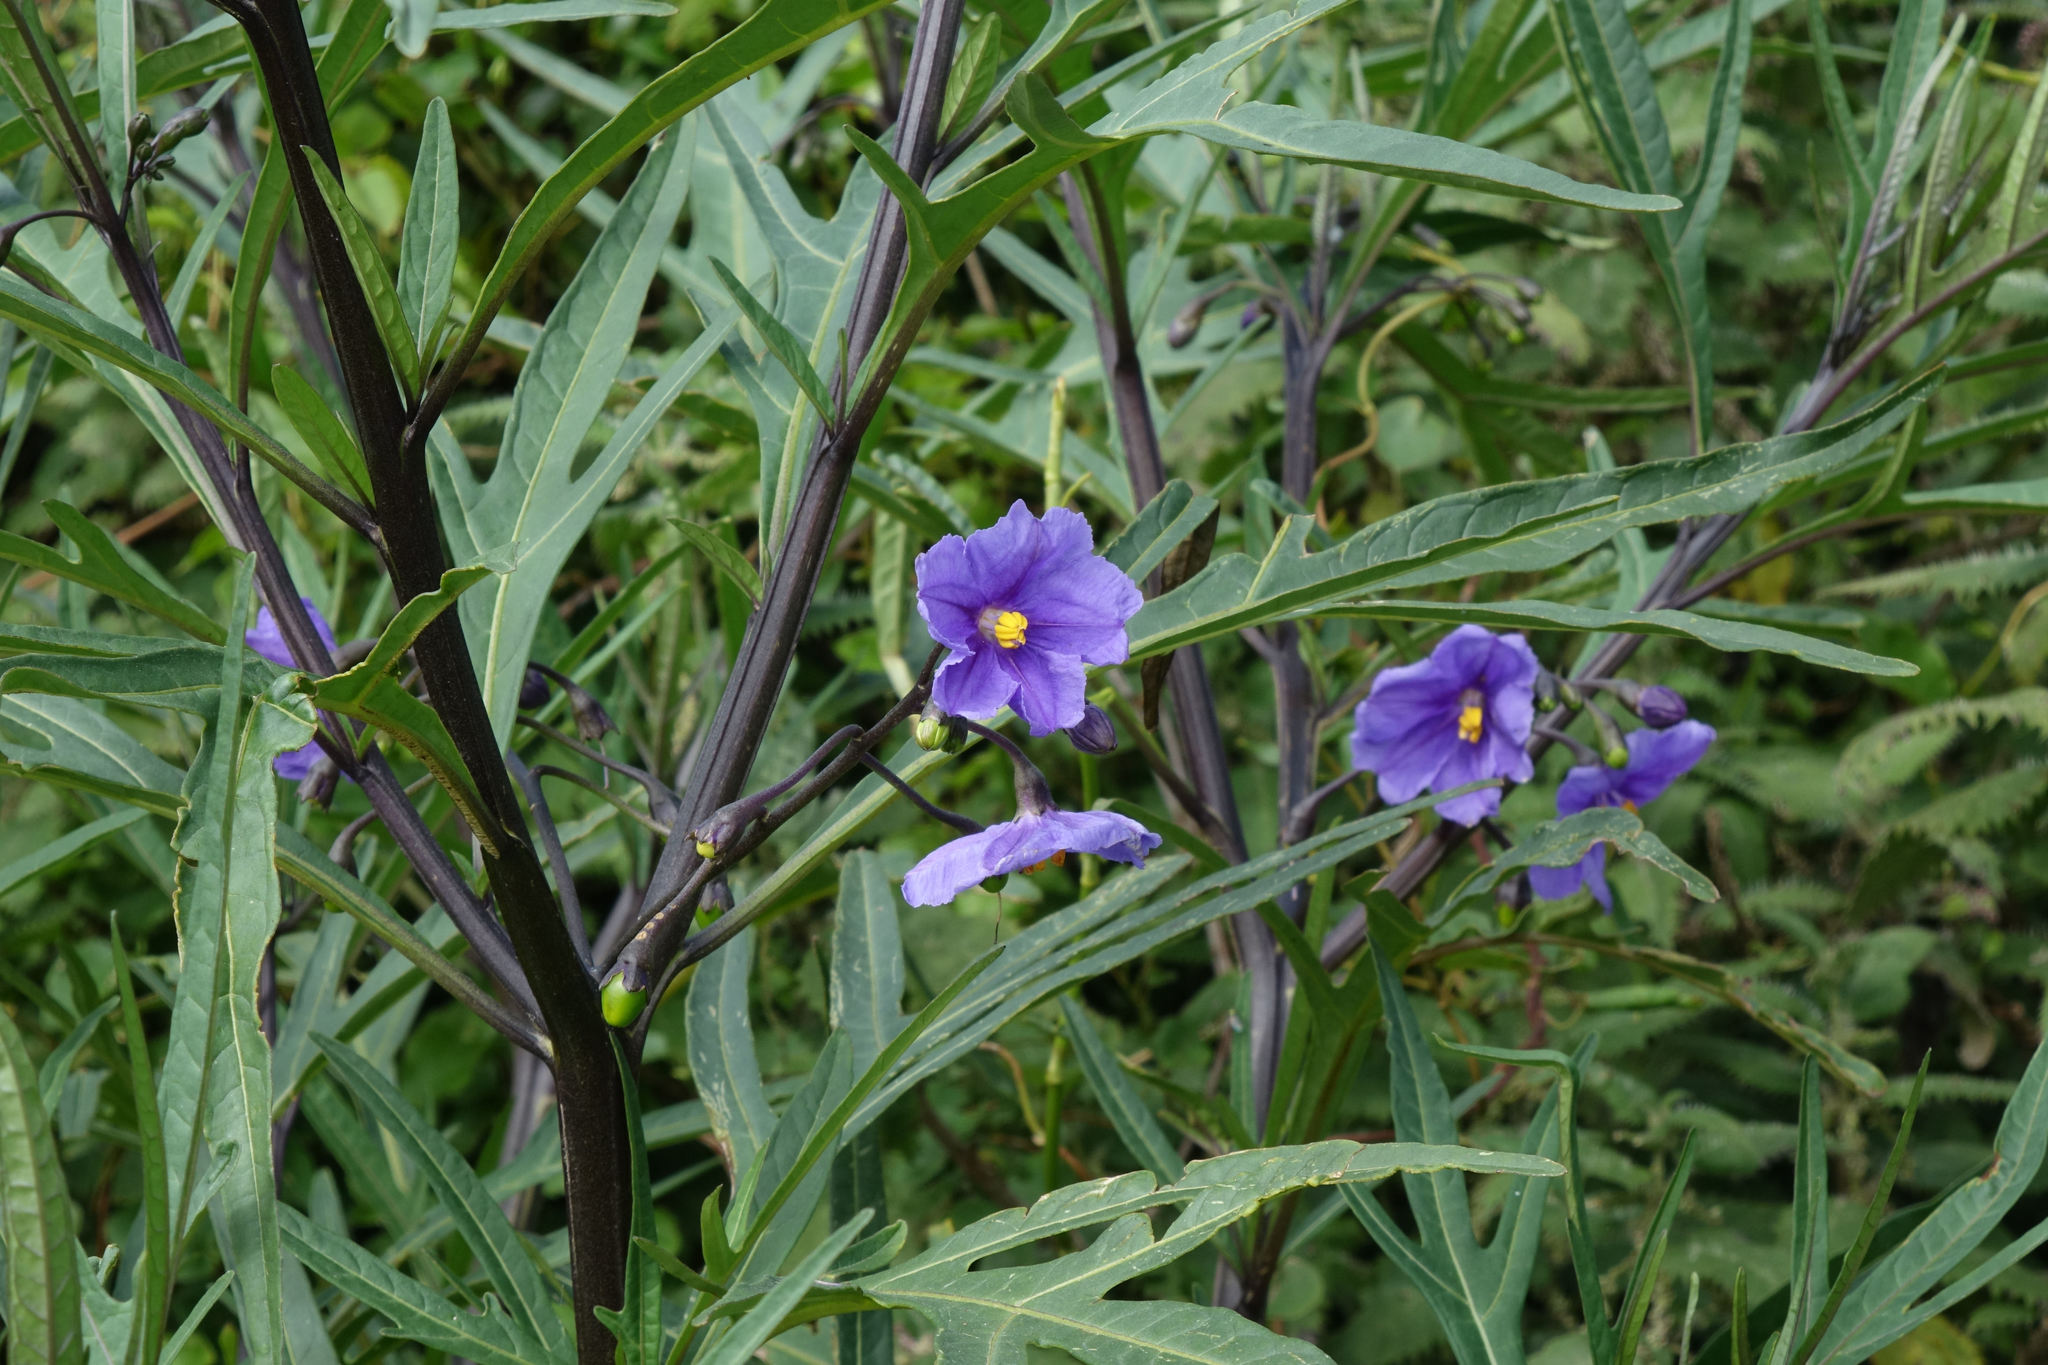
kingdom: Plantae
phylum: Tracheophyta
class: Magnoliopsida
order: Solanales
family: Solanaceae
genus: Solanum
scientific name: Solanum laciniatum
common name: Kangaroo-apple
